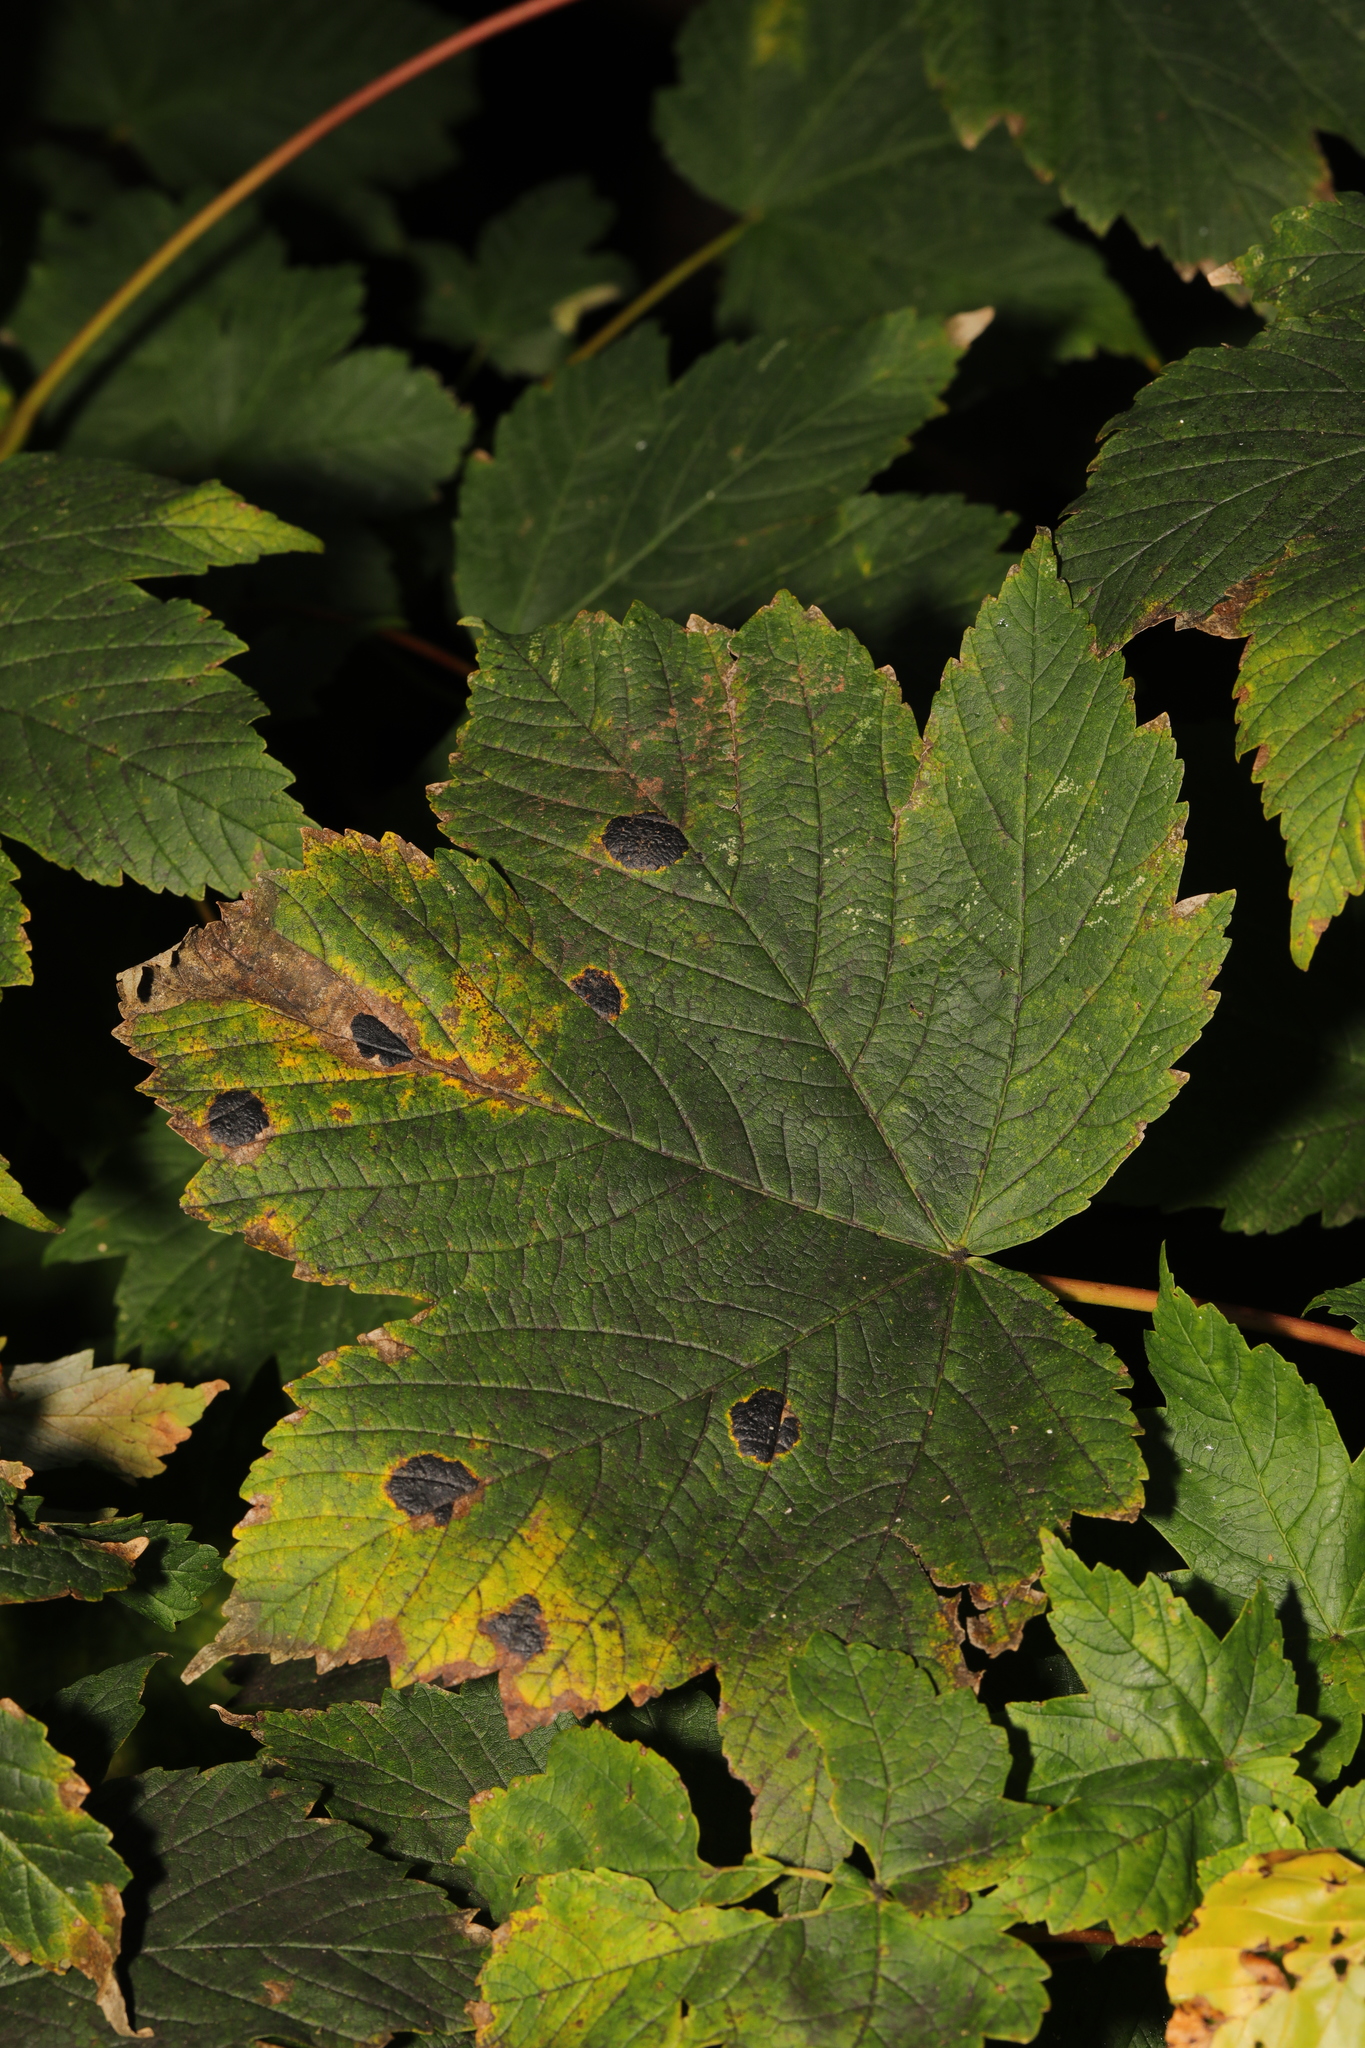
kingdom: Fungi
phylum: Ascomycota
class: Leotiomycetes
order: Rhytismatales
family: Rhytismataceae
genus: Rhytisma
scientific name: Rhytisma acerinum
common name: European tar spot
